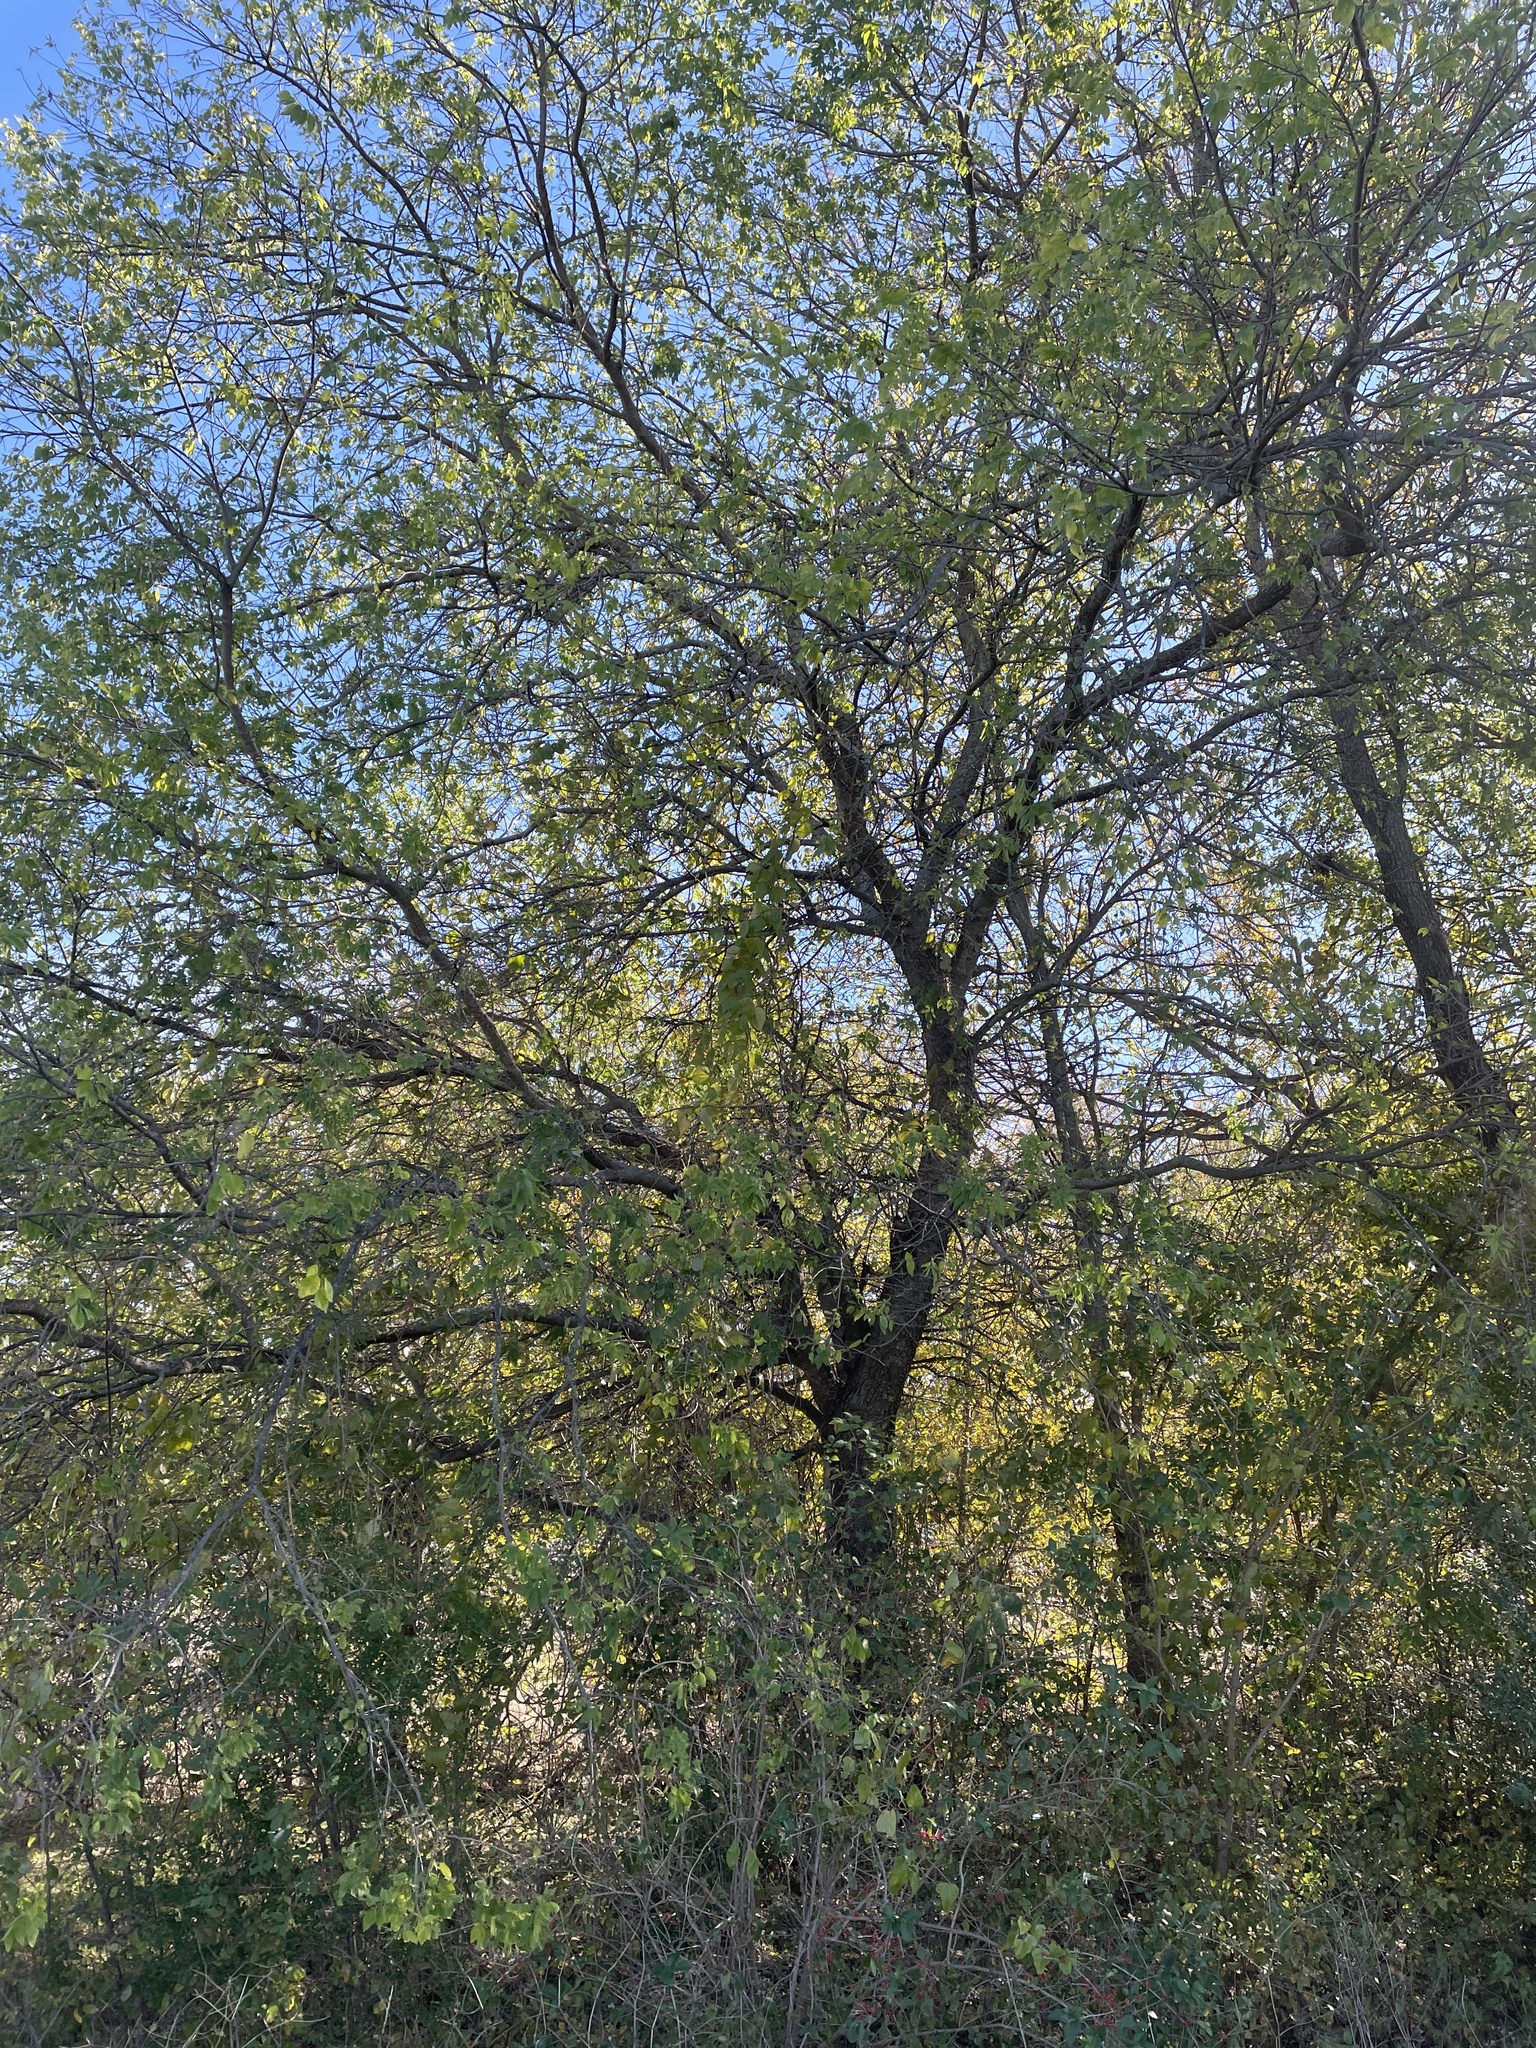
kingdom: Plantae
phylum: Tracheophyta
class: Magnoliopsida
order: Rosales
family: Cannabaceae
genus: Celtis
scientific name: Celtis laevigata
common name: Sugarberry
